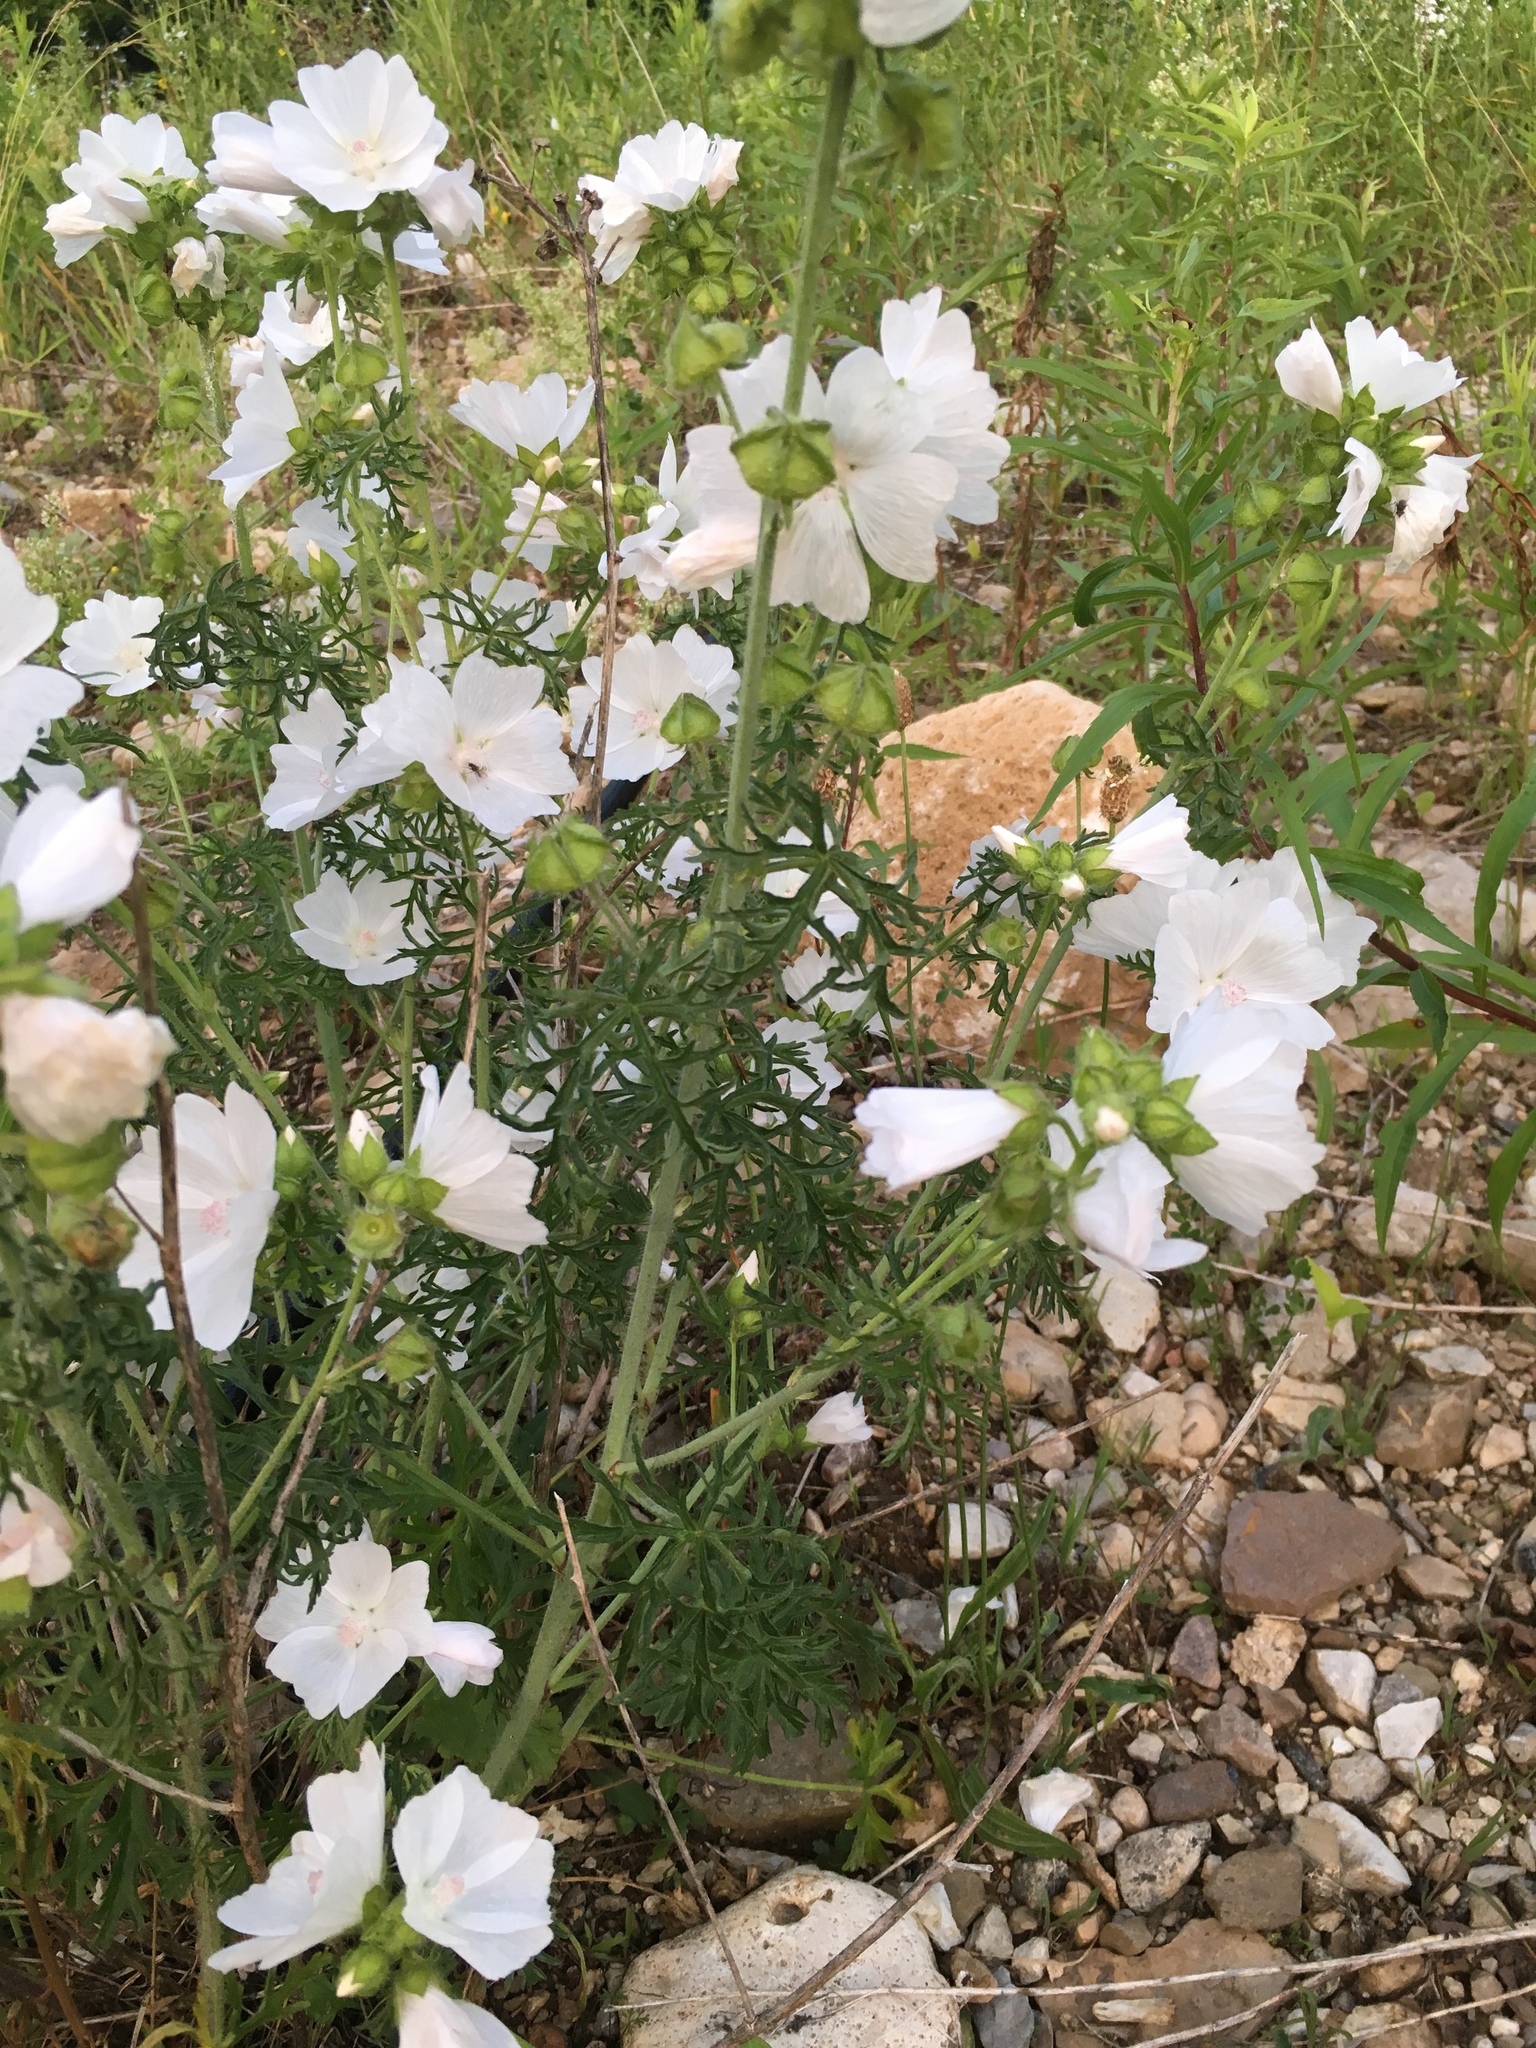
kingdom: Plantae
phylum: Tracheophyta
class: Magnoliopsida
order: Malvales
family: Malvaceae
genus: Malva
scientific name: Malva moschata
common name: Musk mallow
